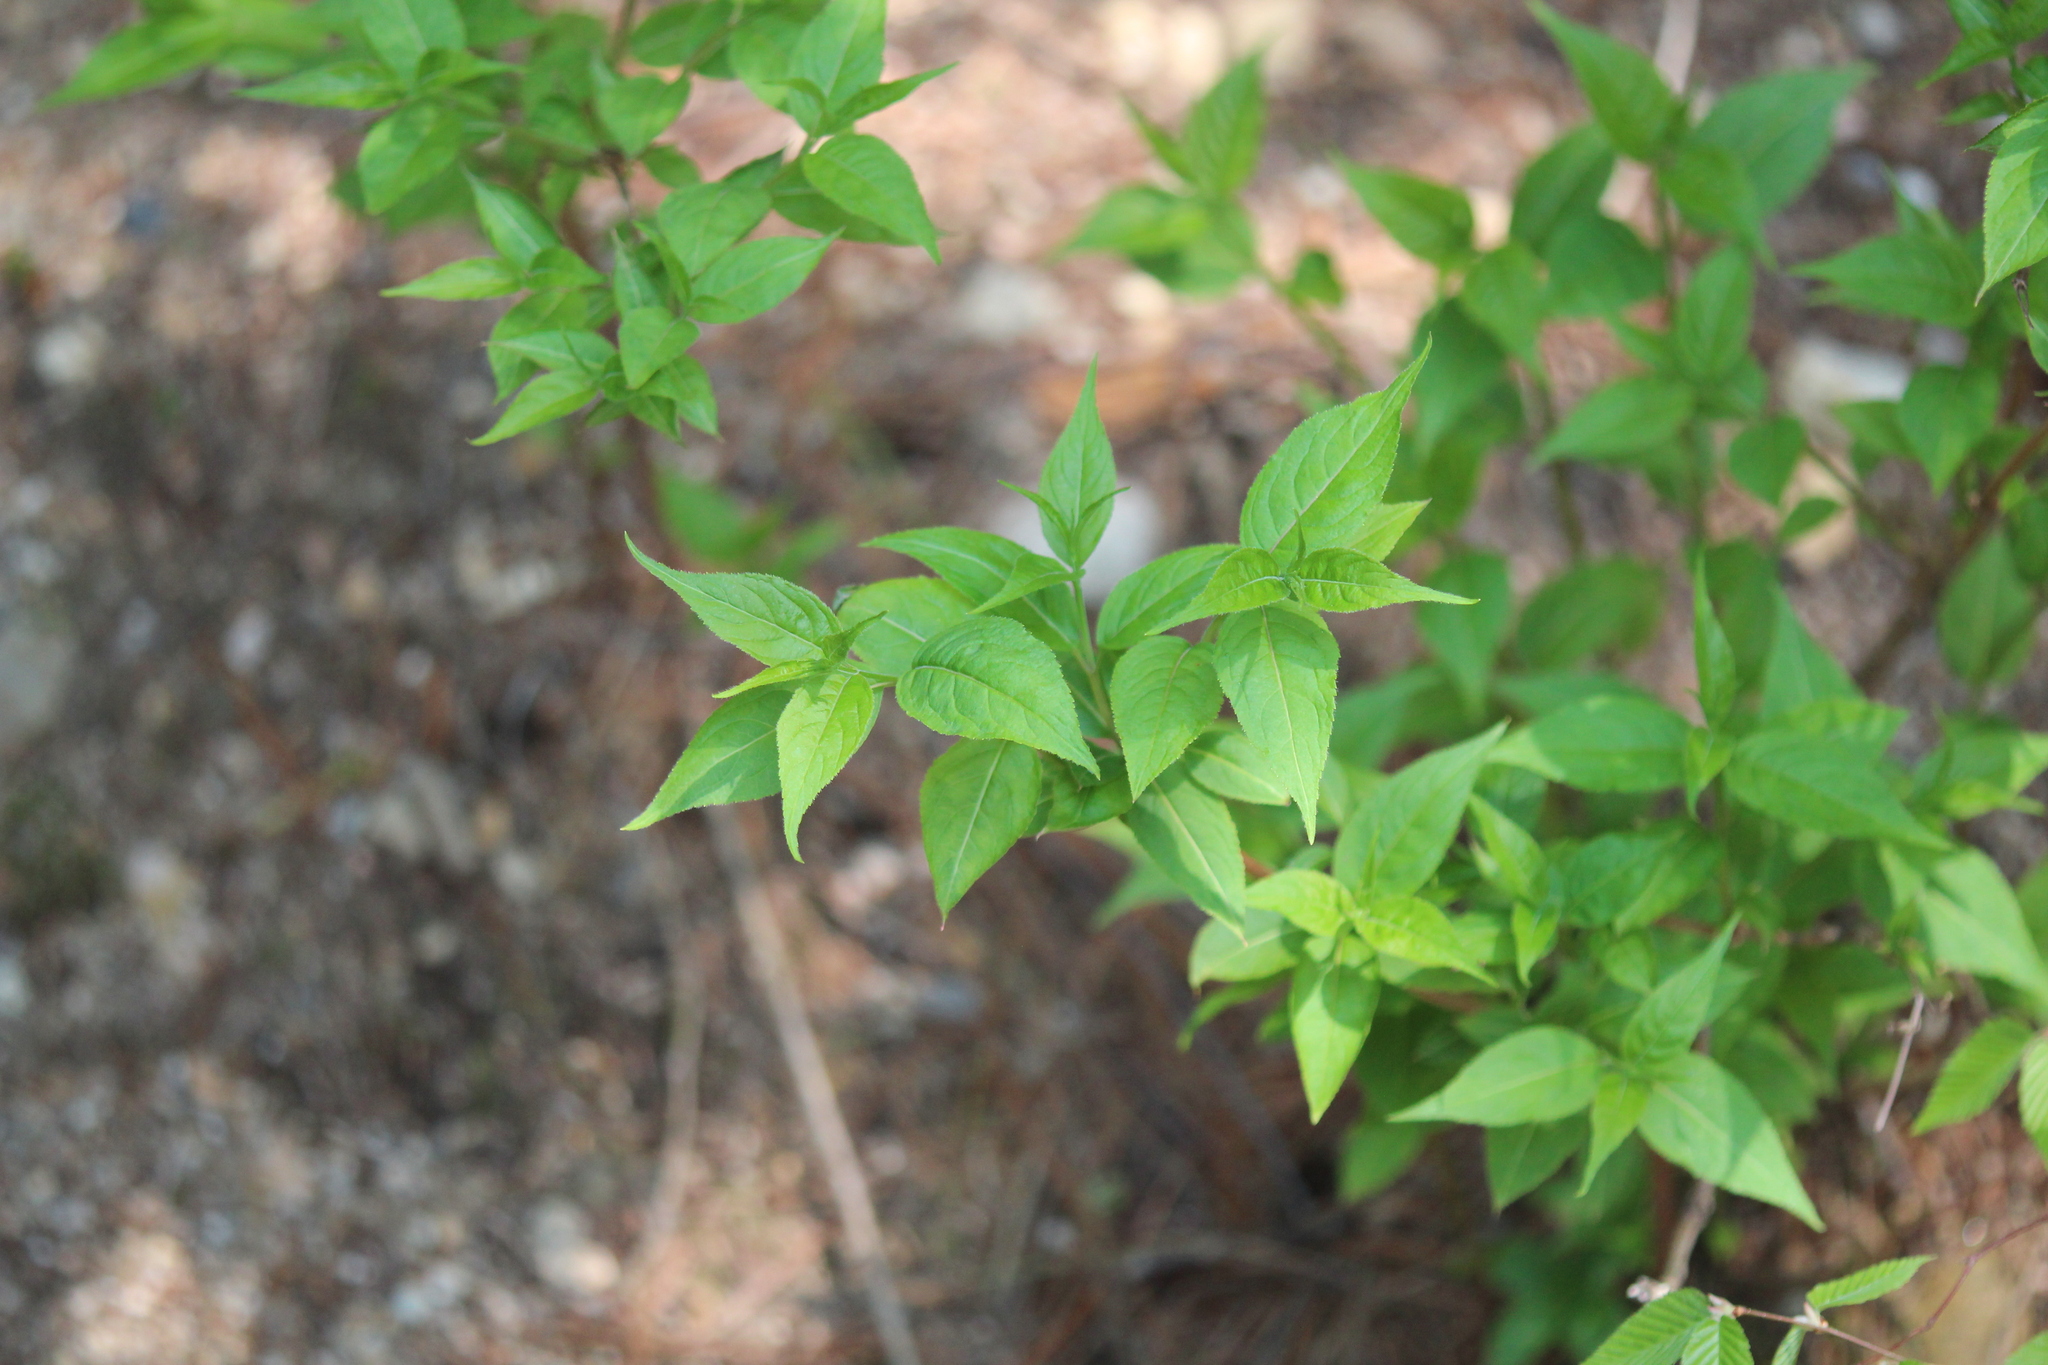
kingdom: Plantae
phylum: Tracheophyta
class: Magnoliopsida
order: Dipsacales
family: Caprifoliaceae
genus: Diervilla
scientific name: Diervilla lonicera
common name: Bush-honeysuckle
